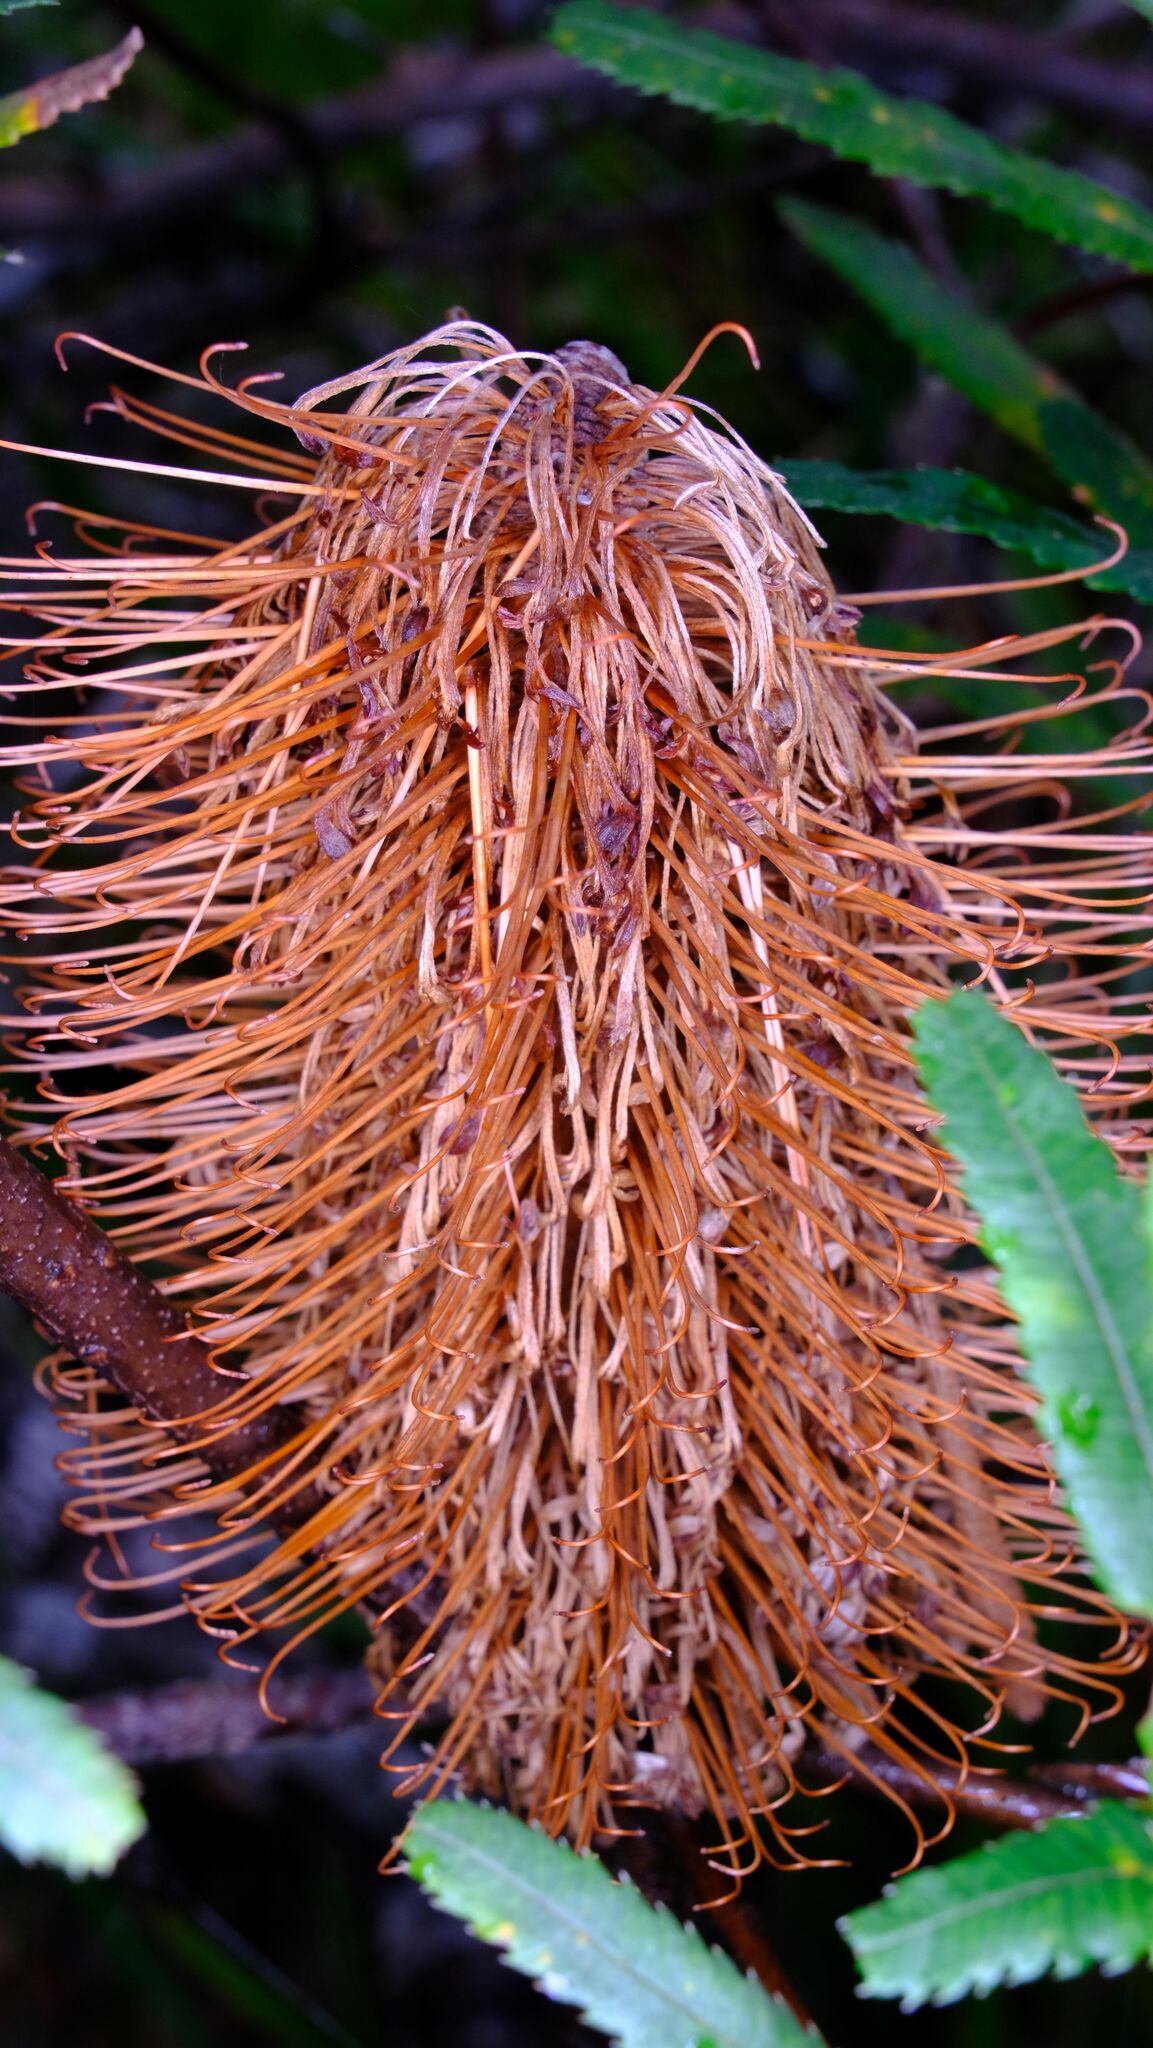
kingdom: Plantae
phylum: Tracheophyta
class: Magnoliopsida
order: Proteales
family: Proteaceae
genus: Banksia
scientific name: Banksia spinulosa
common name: Hairpin banksia
